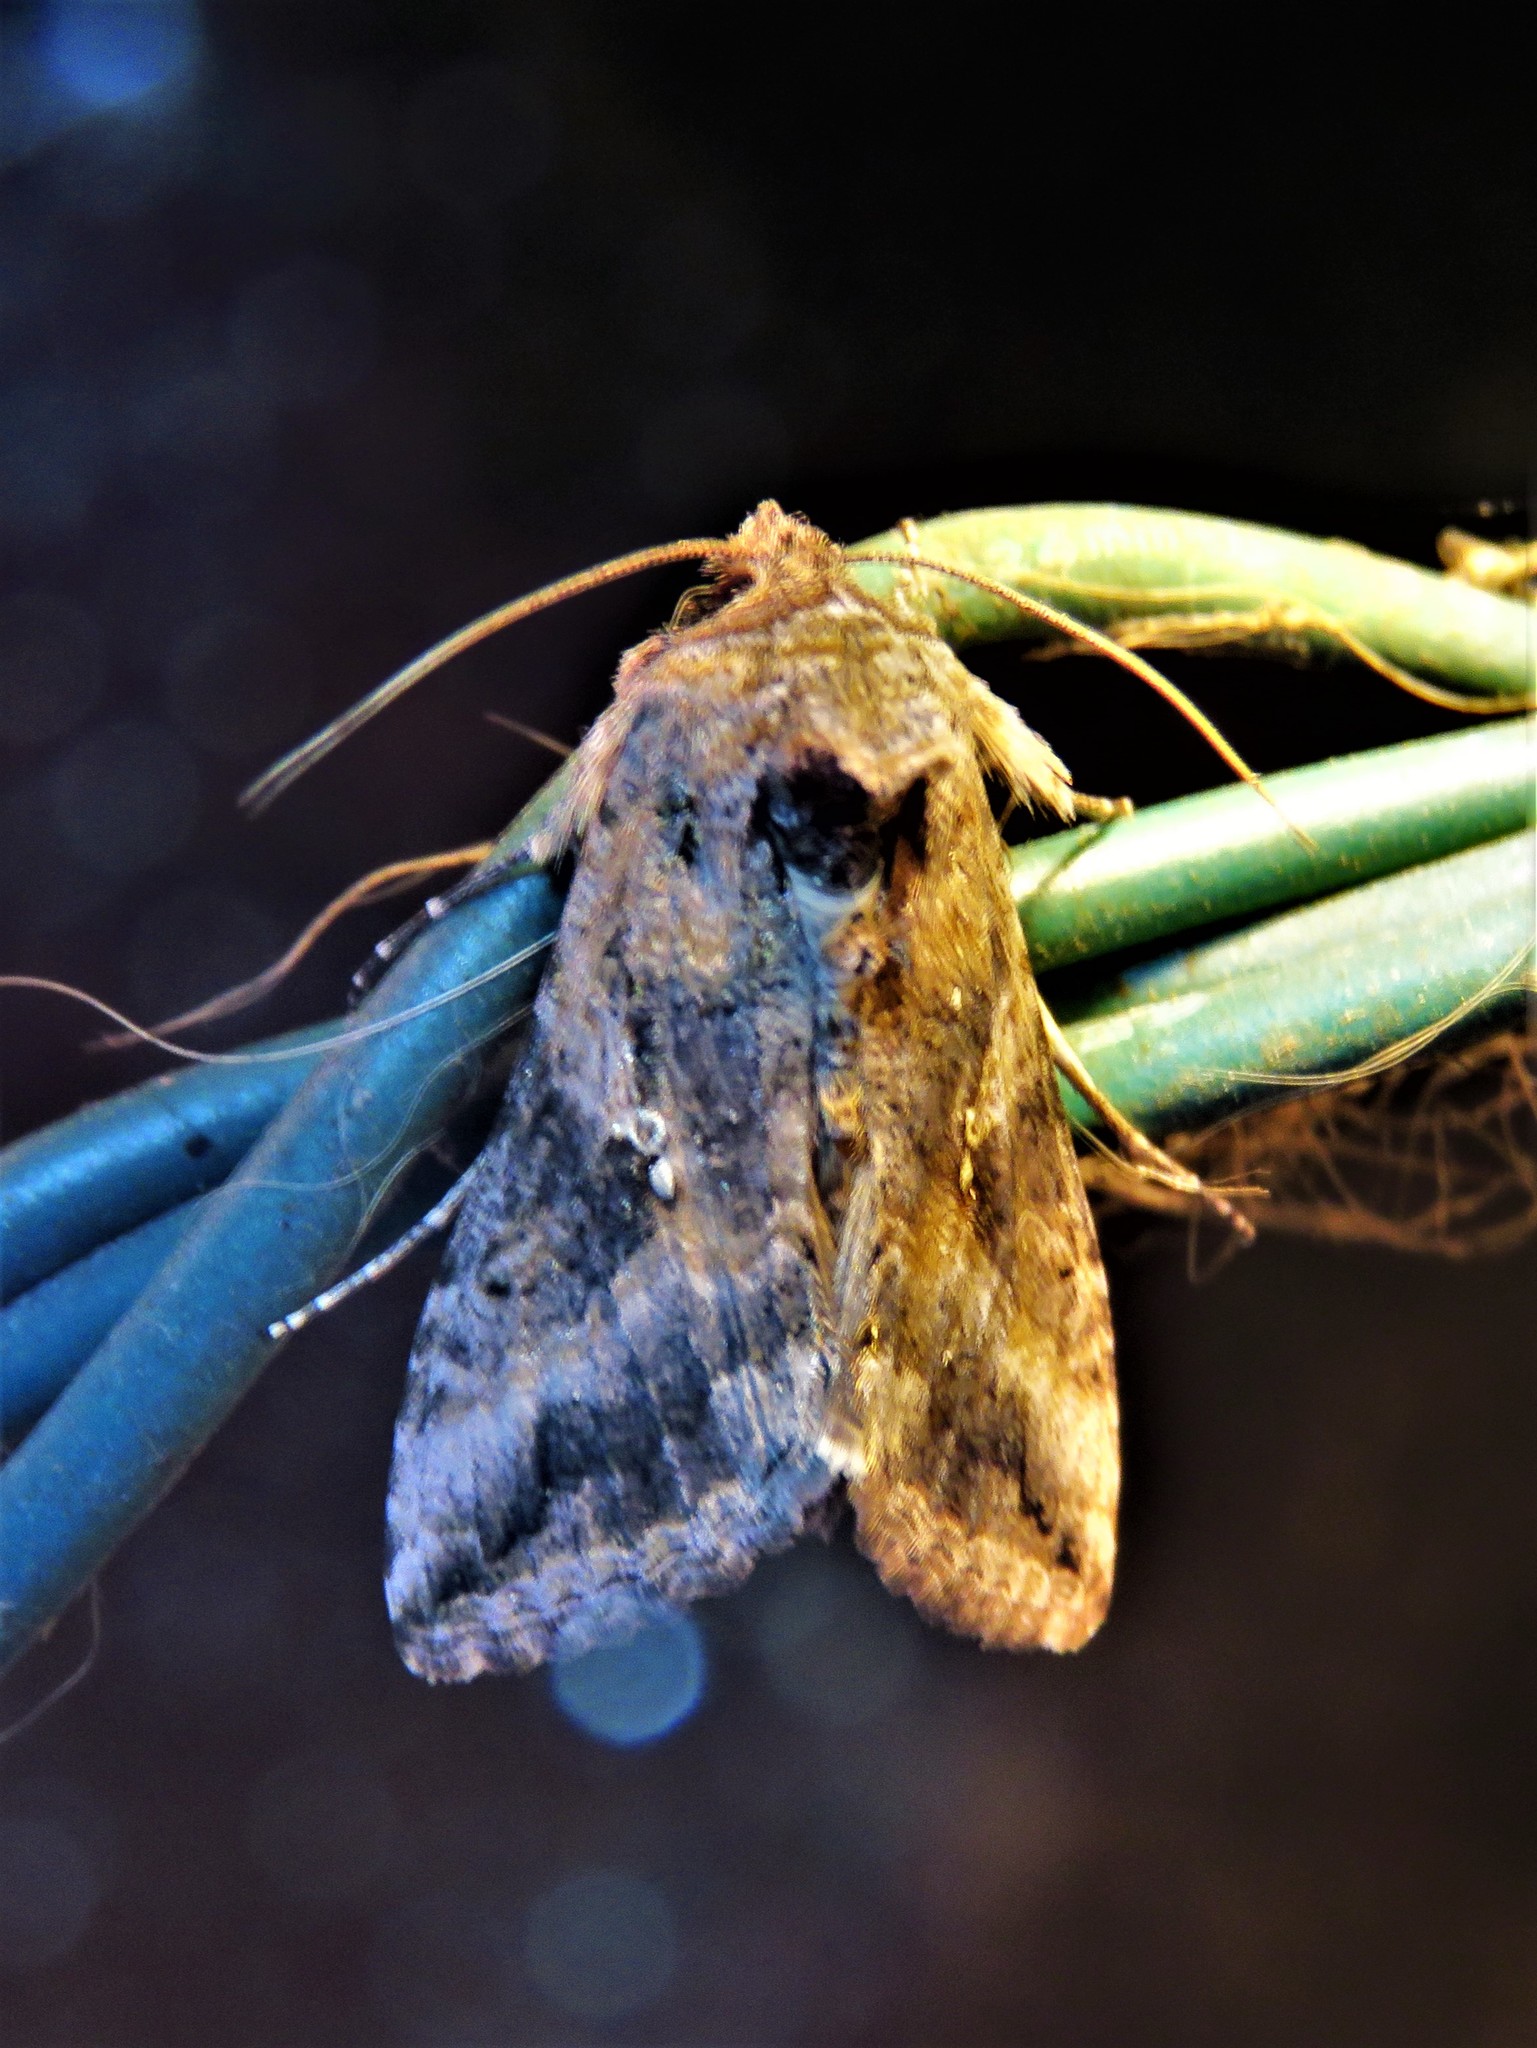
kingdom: Animalia
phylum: Arthropoda
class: Insecta
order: Lepidoptera
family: Noctuidae
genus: Rachiplusia
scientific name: Rachiplusia ou
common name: Gray looper moth
